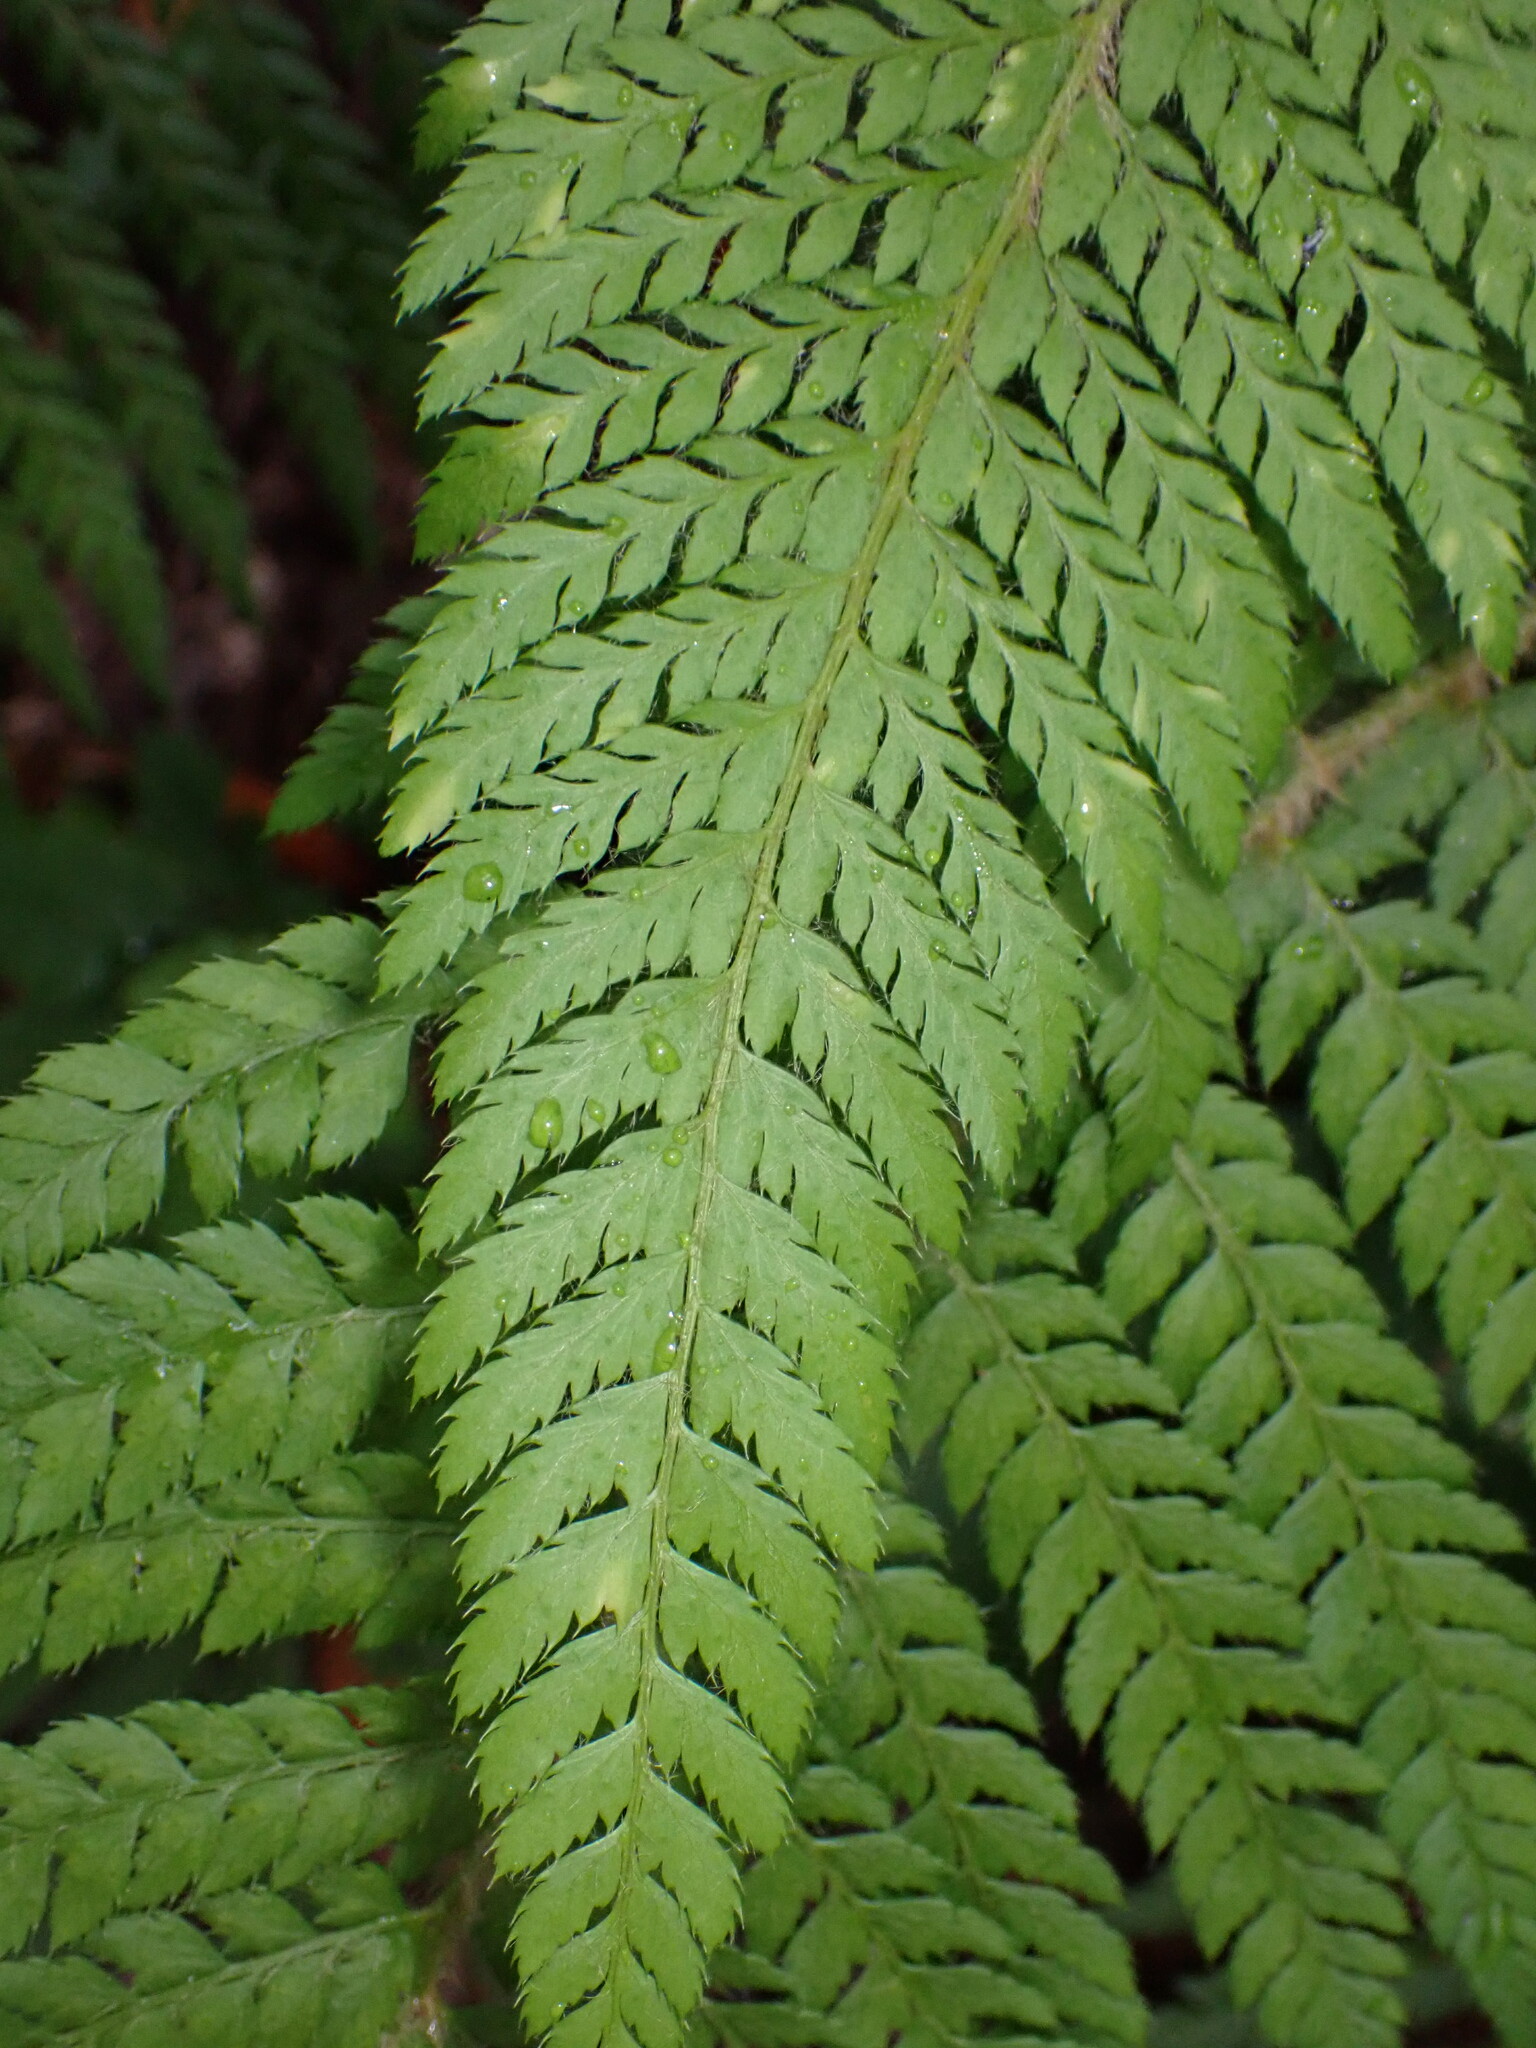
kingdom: Plantae
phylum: Tracheophyta
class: Polypodiopsida
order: Polypodiales
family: Dryopteridaceae
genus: Polystichum
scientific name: Polystichum dudleyi
